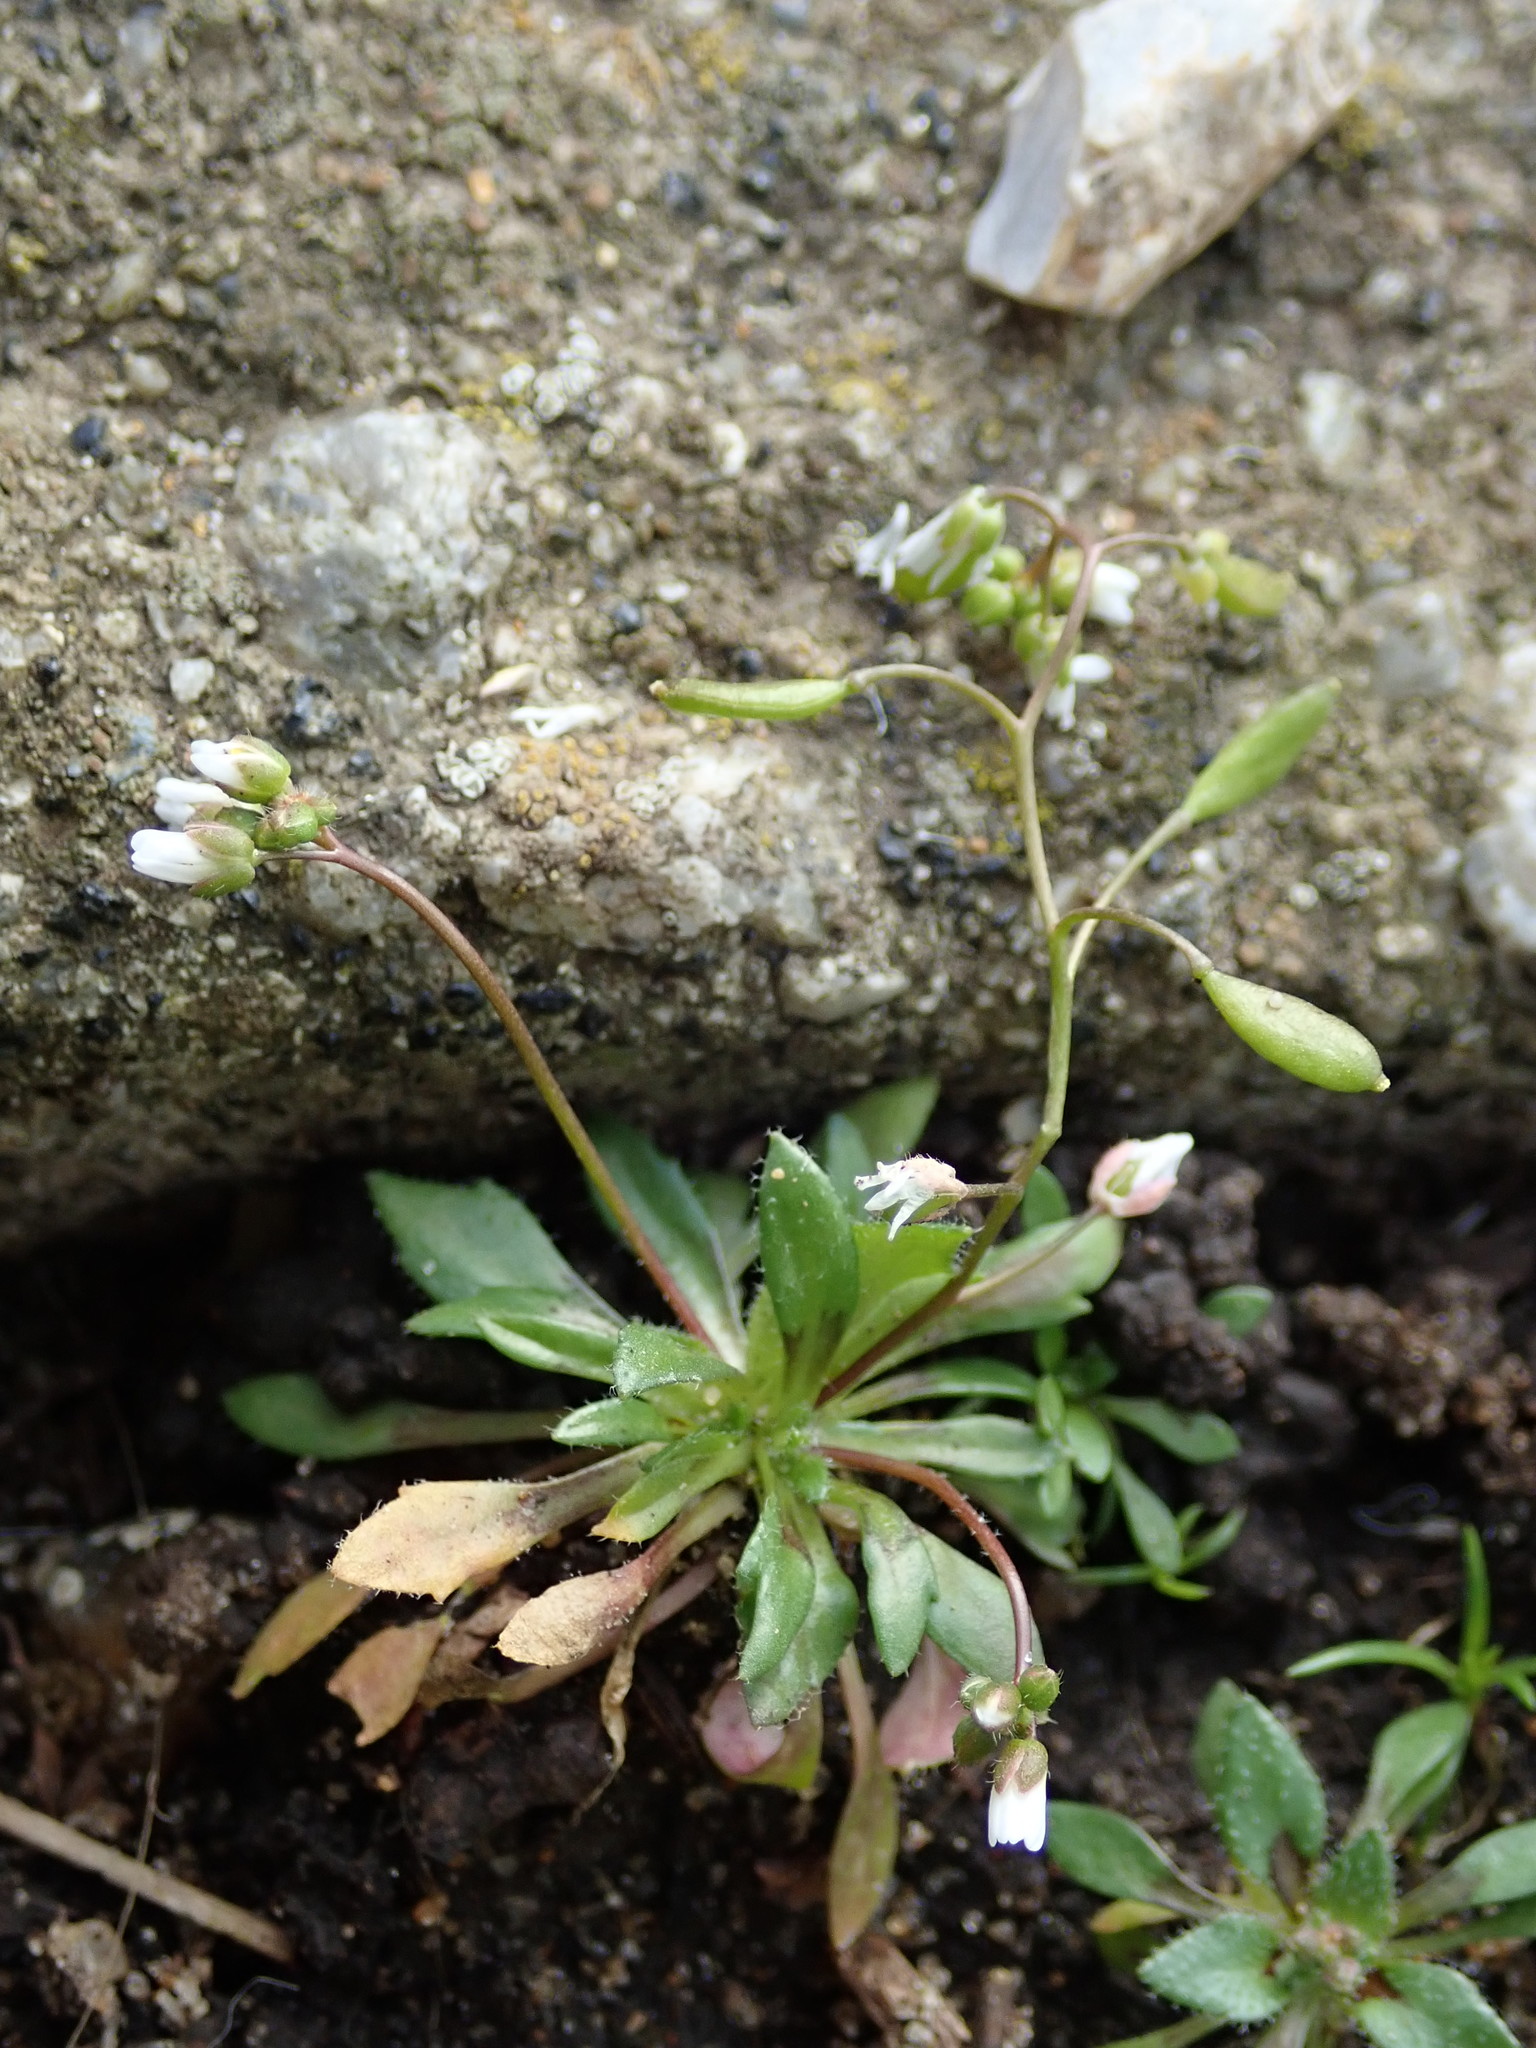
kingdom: Plantae
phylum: Tracheophyta
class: Magnoliopsida
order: Brassicales
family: Brassicaceae
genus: Draba
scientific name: Draba verna
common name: Spring draba
